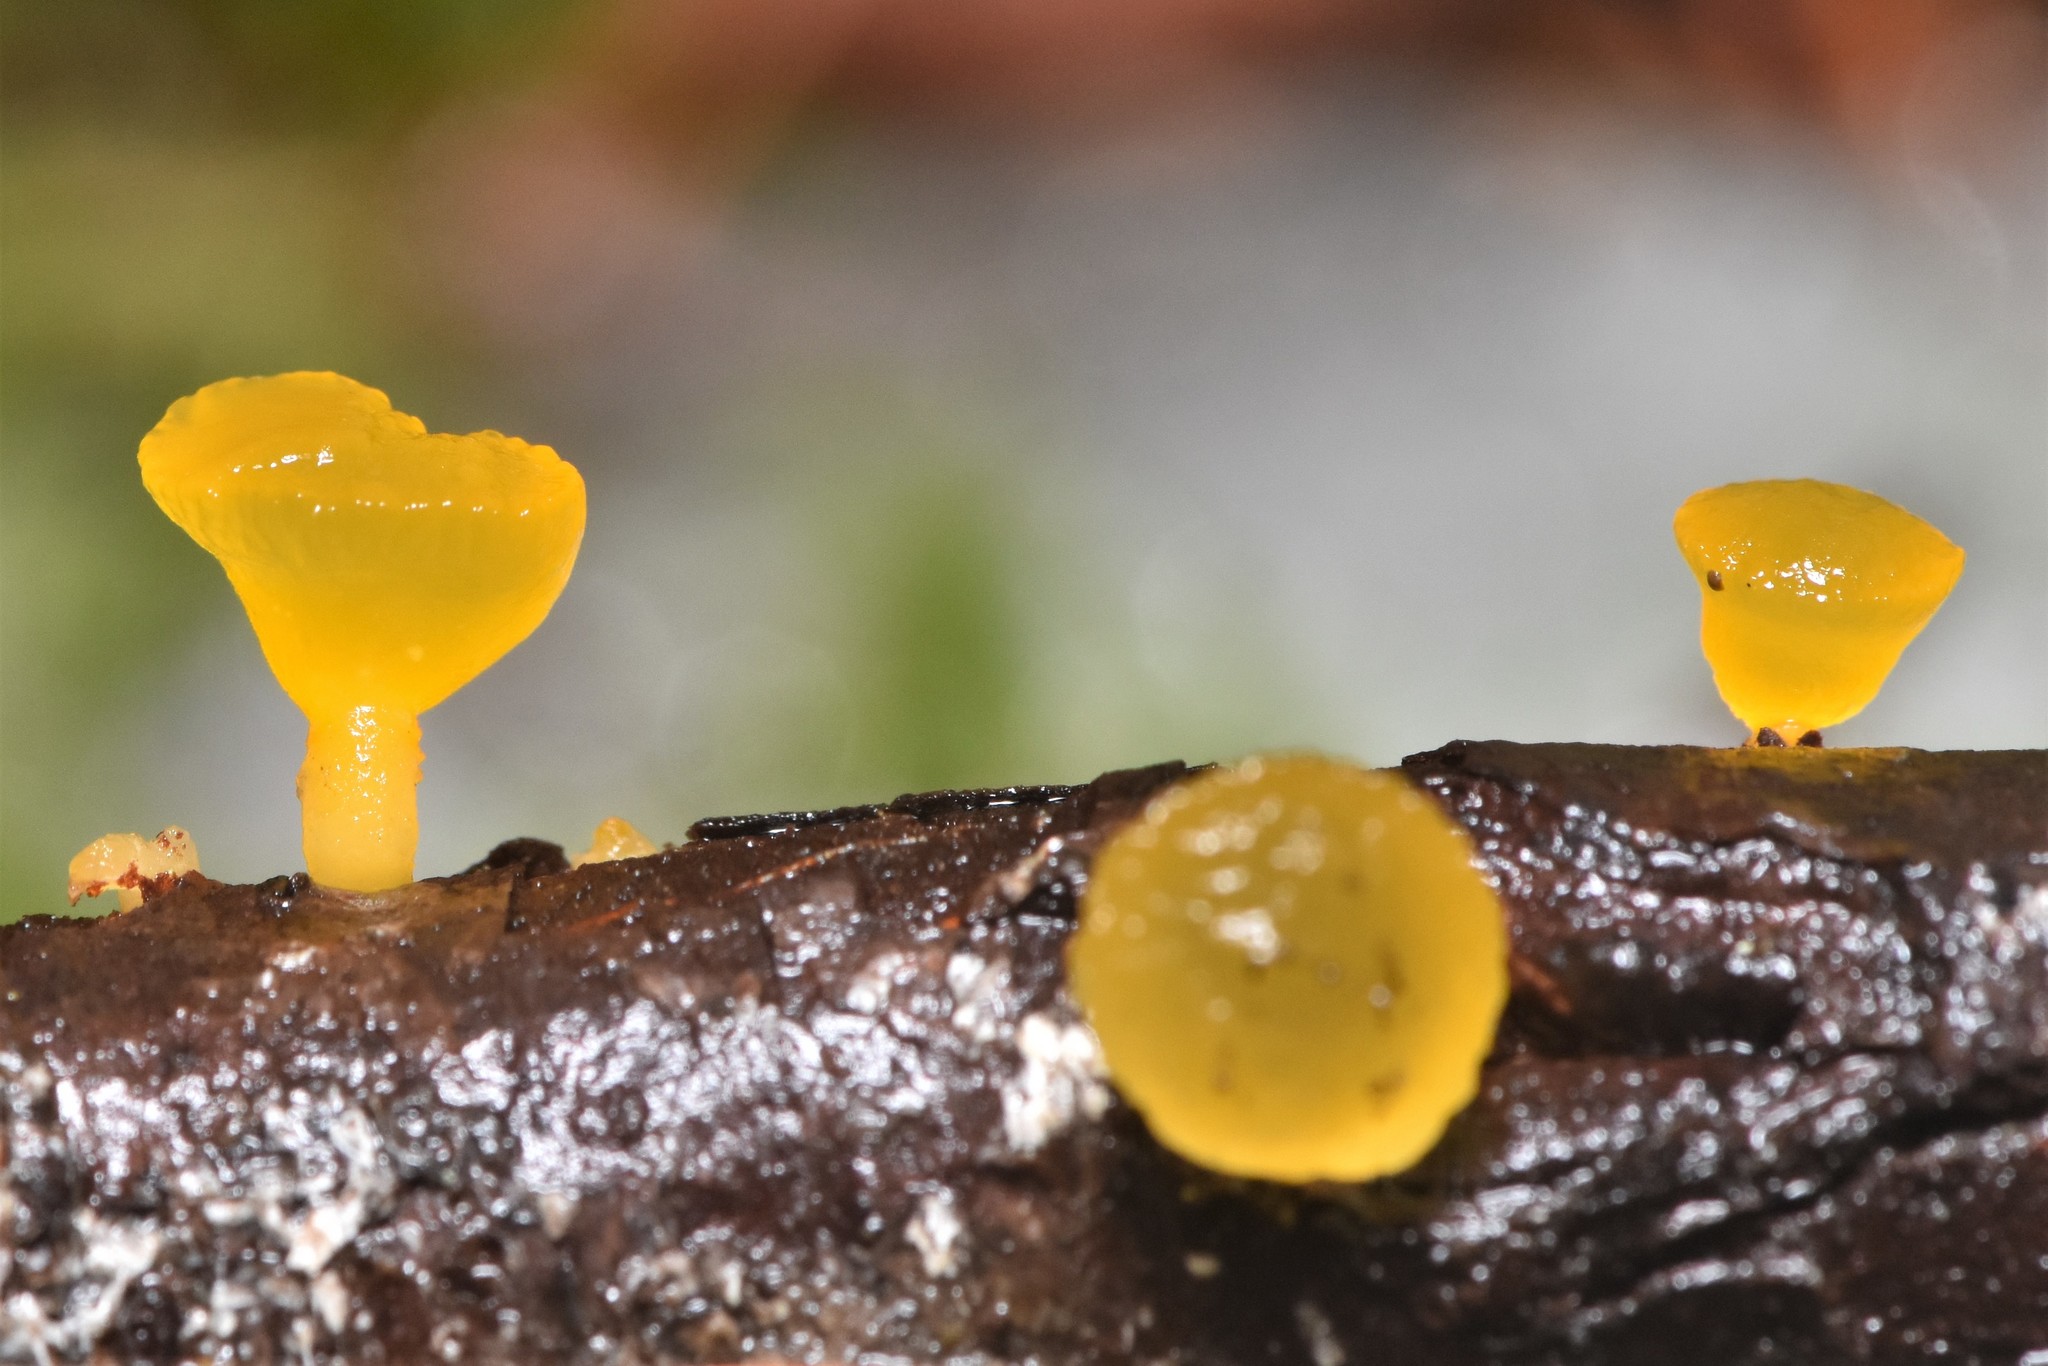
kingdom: Fungi
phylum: Basidiomycota
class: Dacrymycetes
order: Dacrymycetales
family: Dacrymycetaceae
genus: Guepiniopsis
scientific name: Guepiniopsis alpina
